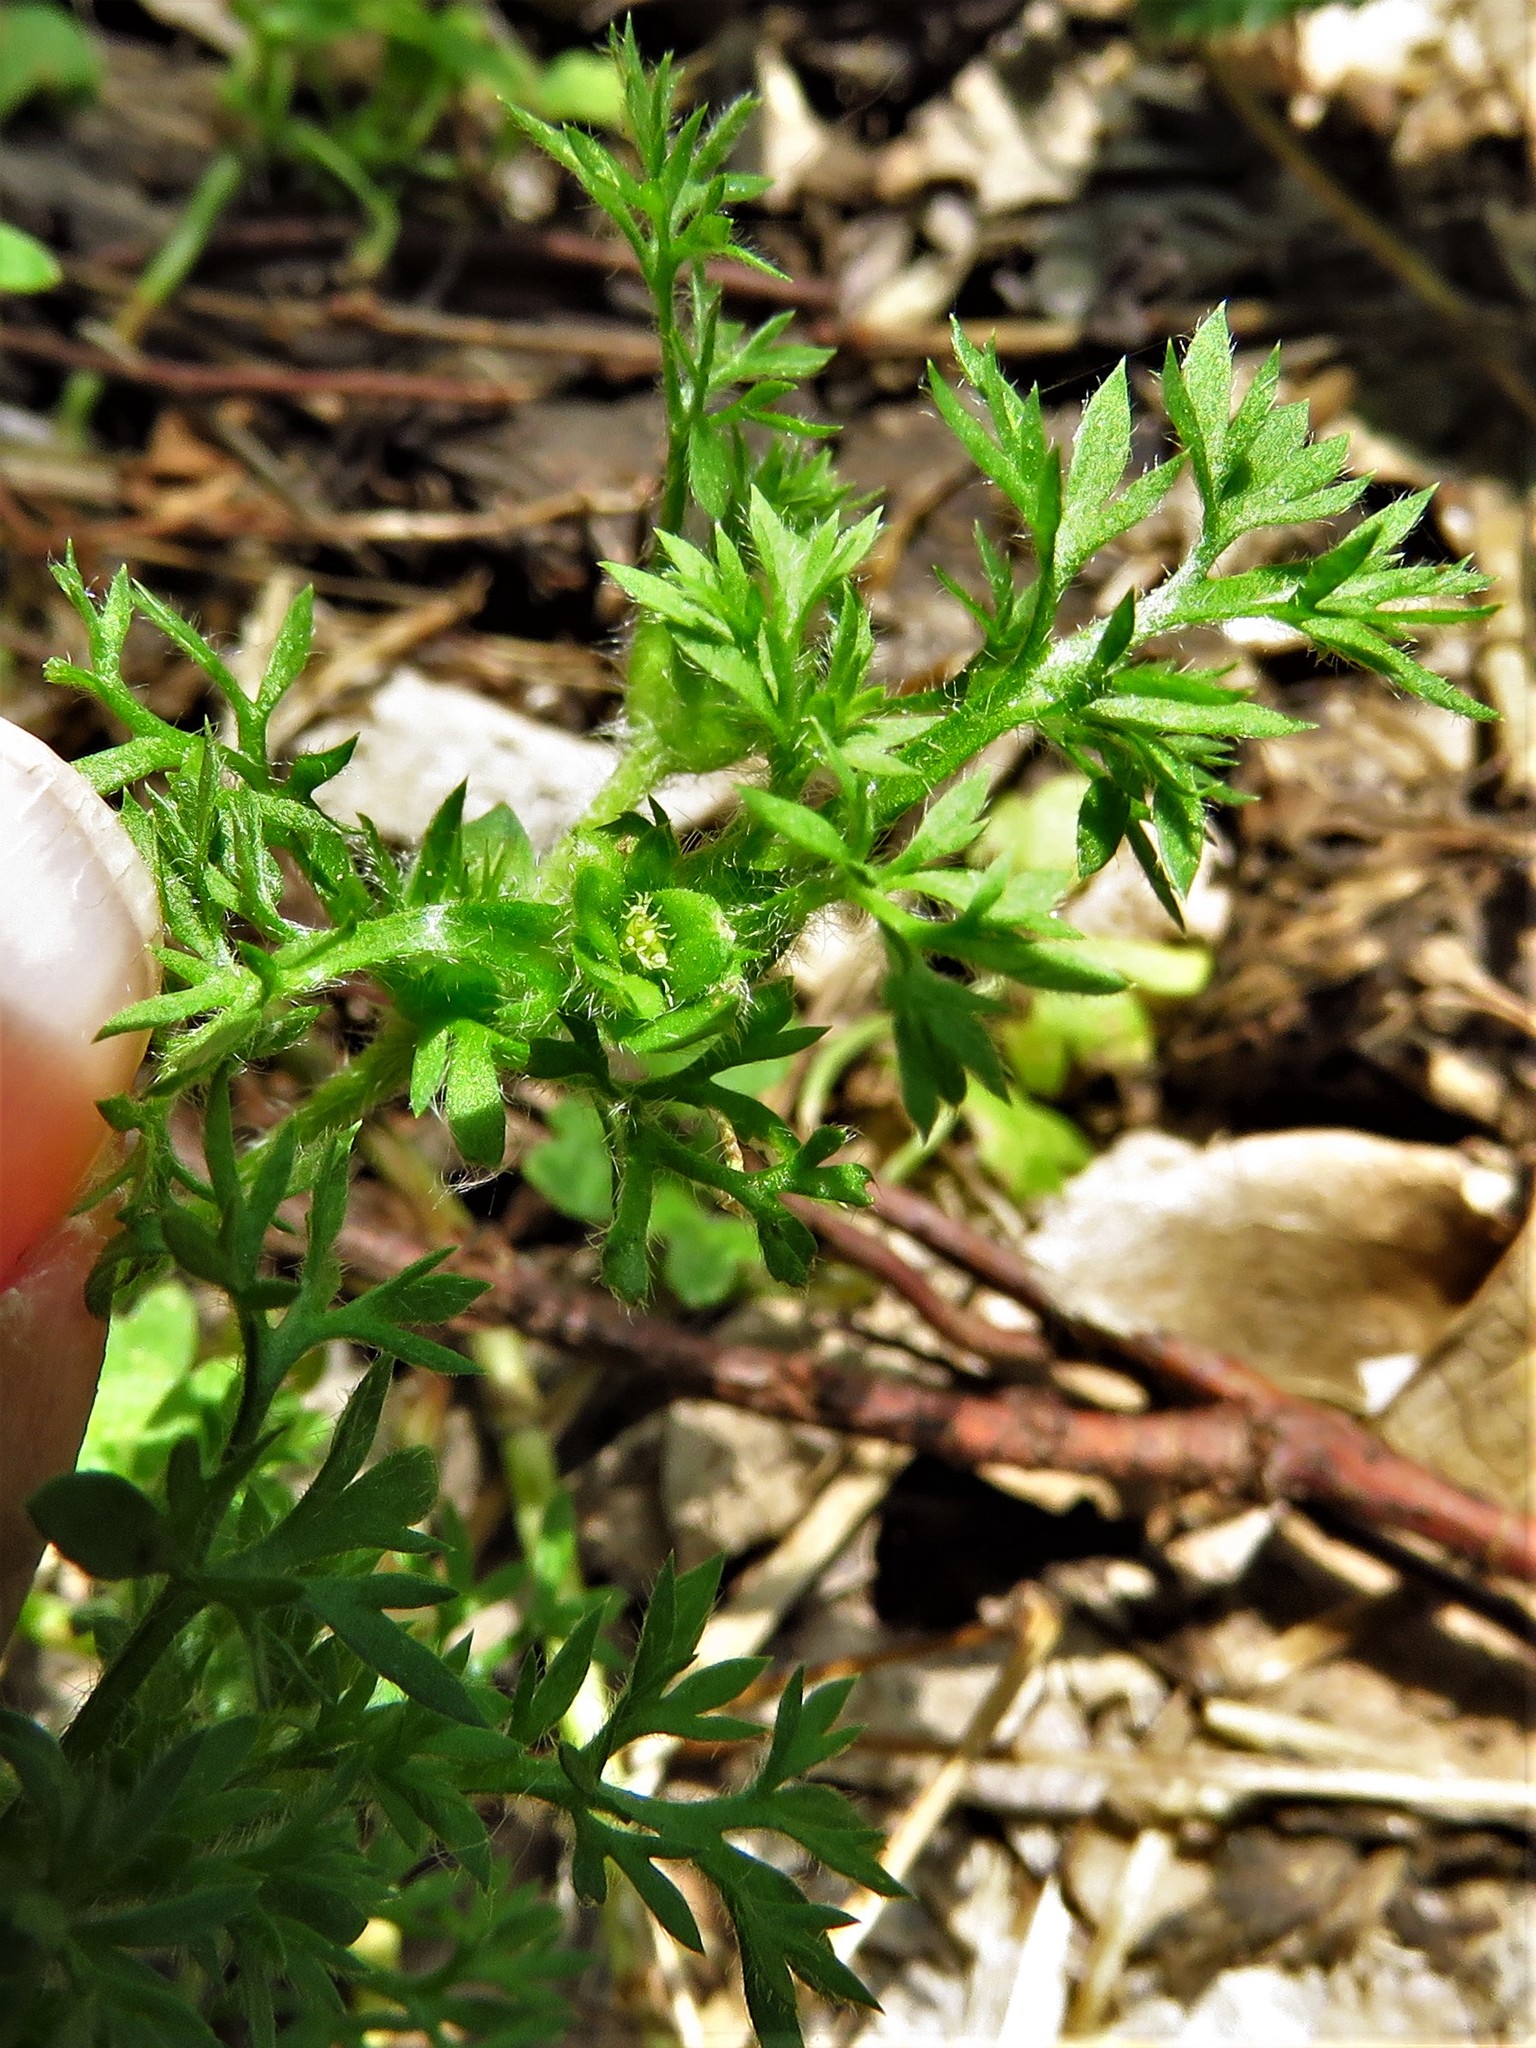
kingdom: Plantae
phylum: Tracheophyta
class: Magnoliopsida
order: Asterales
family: Asteraceae
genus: Soliva
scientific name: Soliva sessilis
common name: Field burrweed
